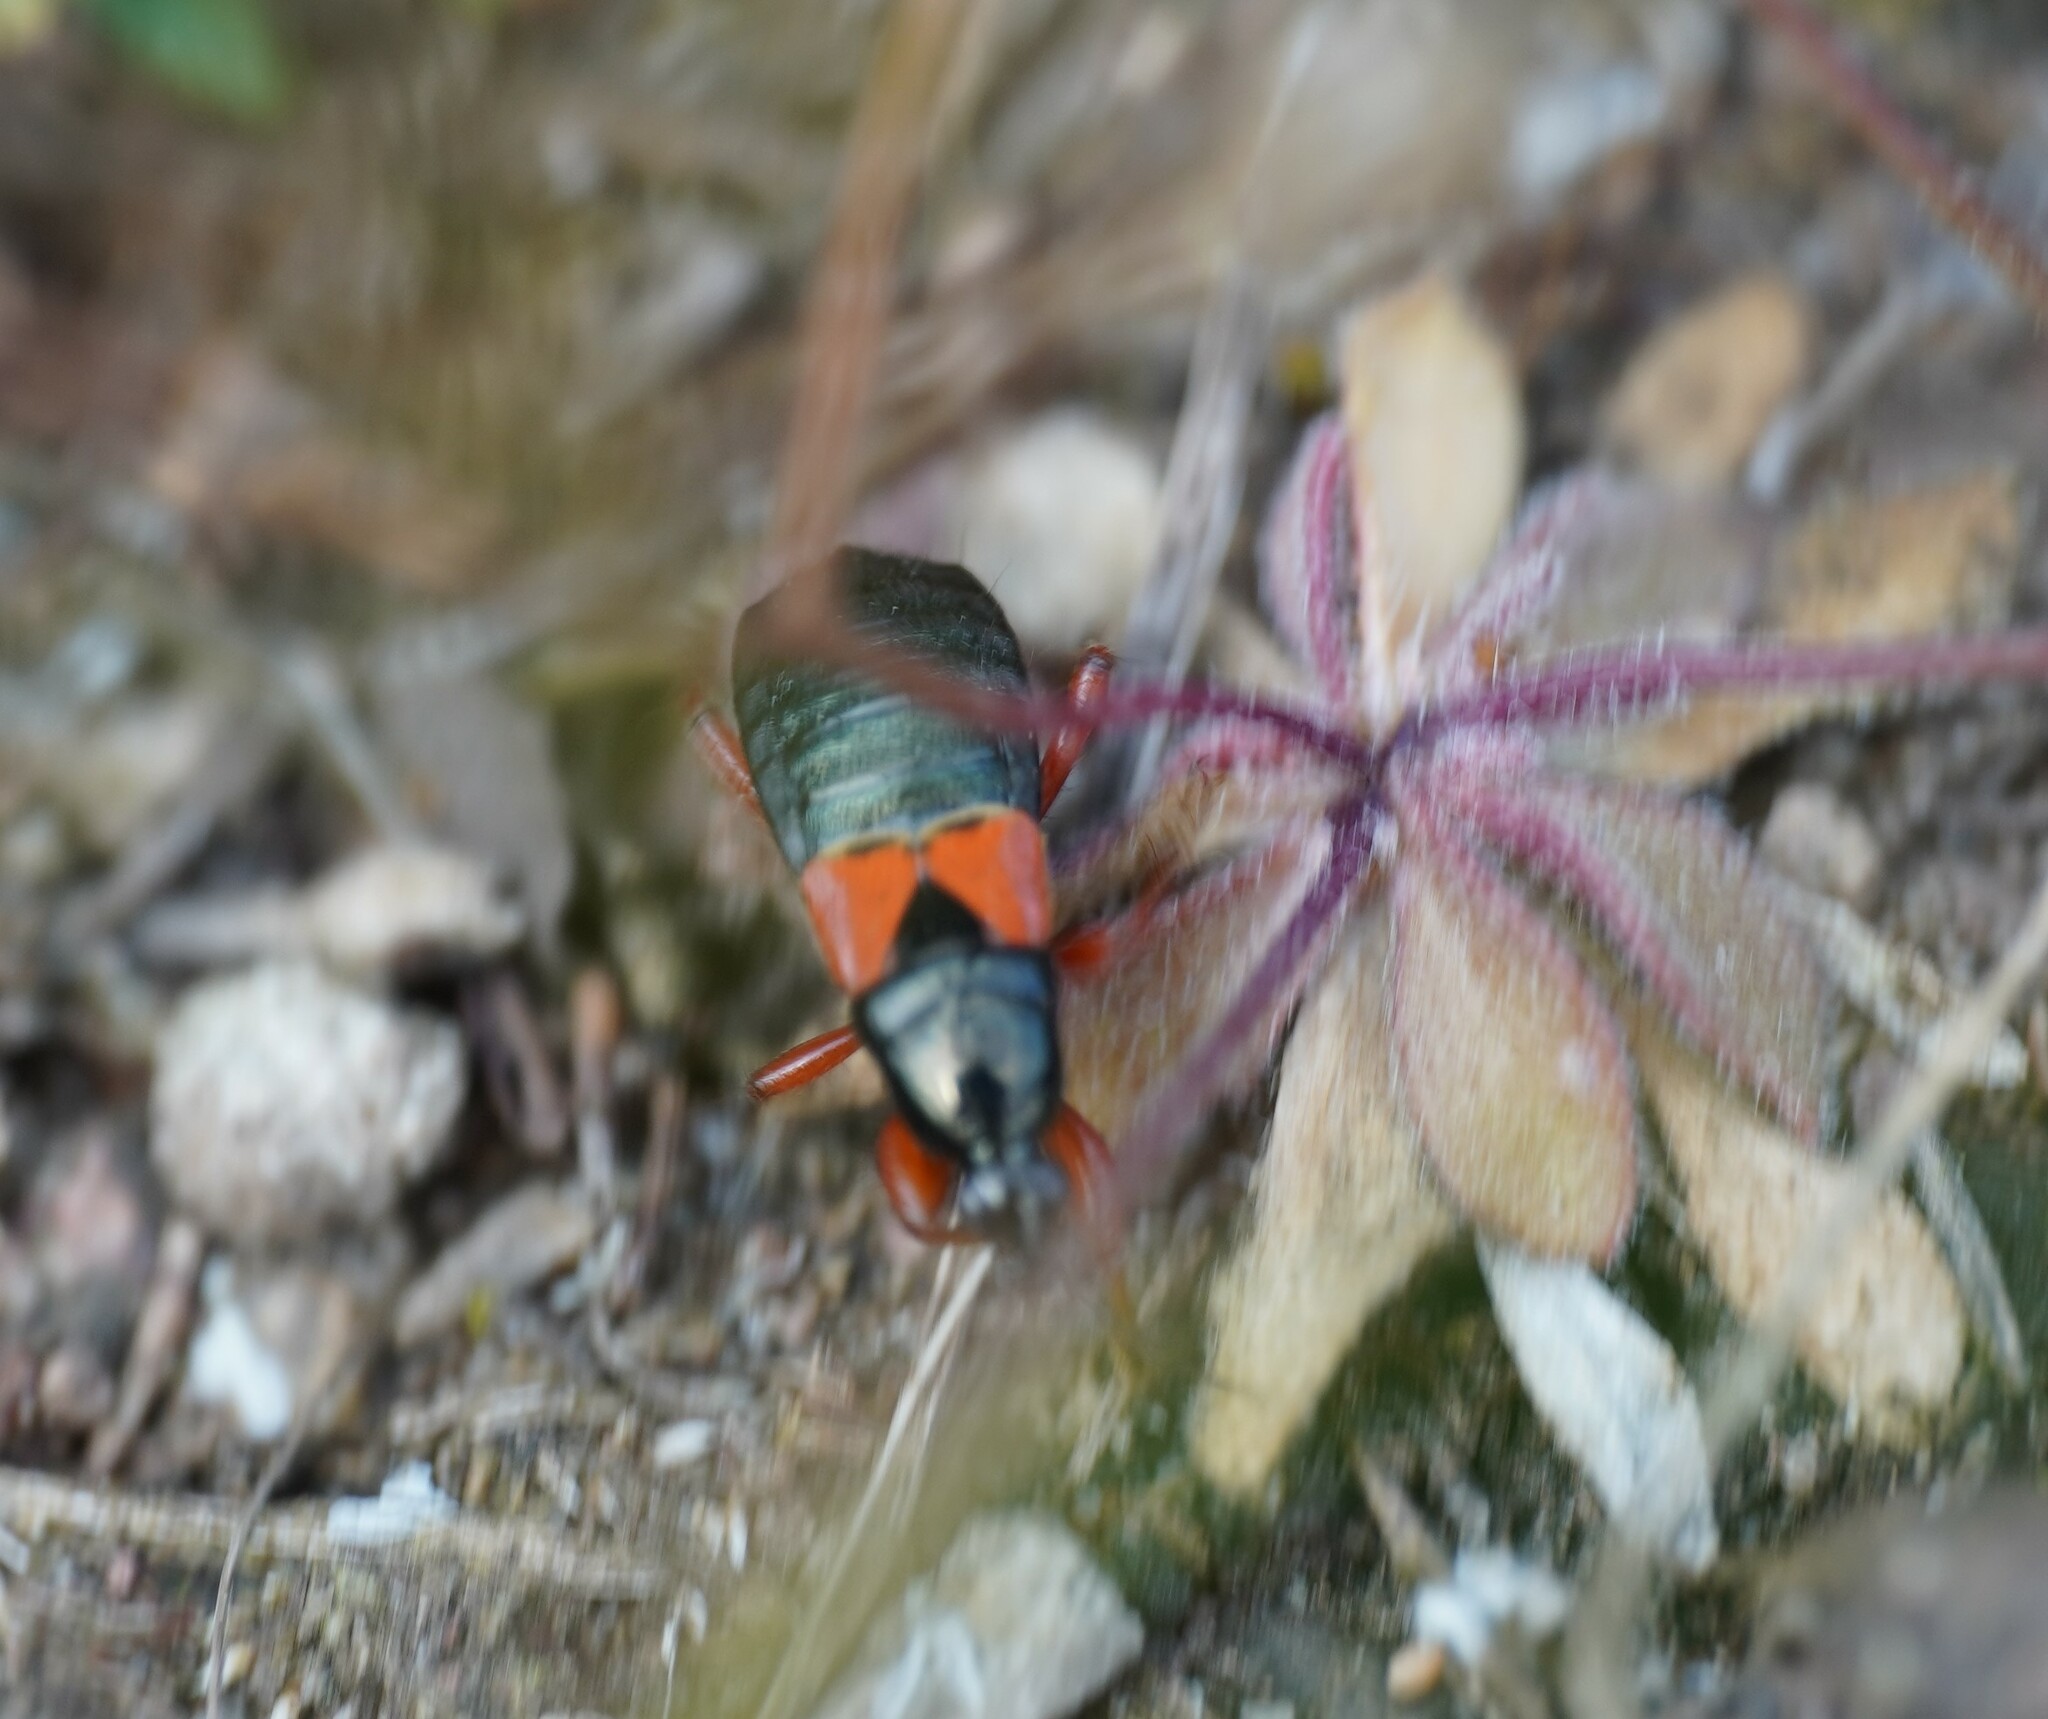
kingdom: Animalia
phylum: Arthropoda
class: Insecta
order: Hemiptera
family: Nabidae
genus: Prostemma
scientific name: Prostemma guttula
